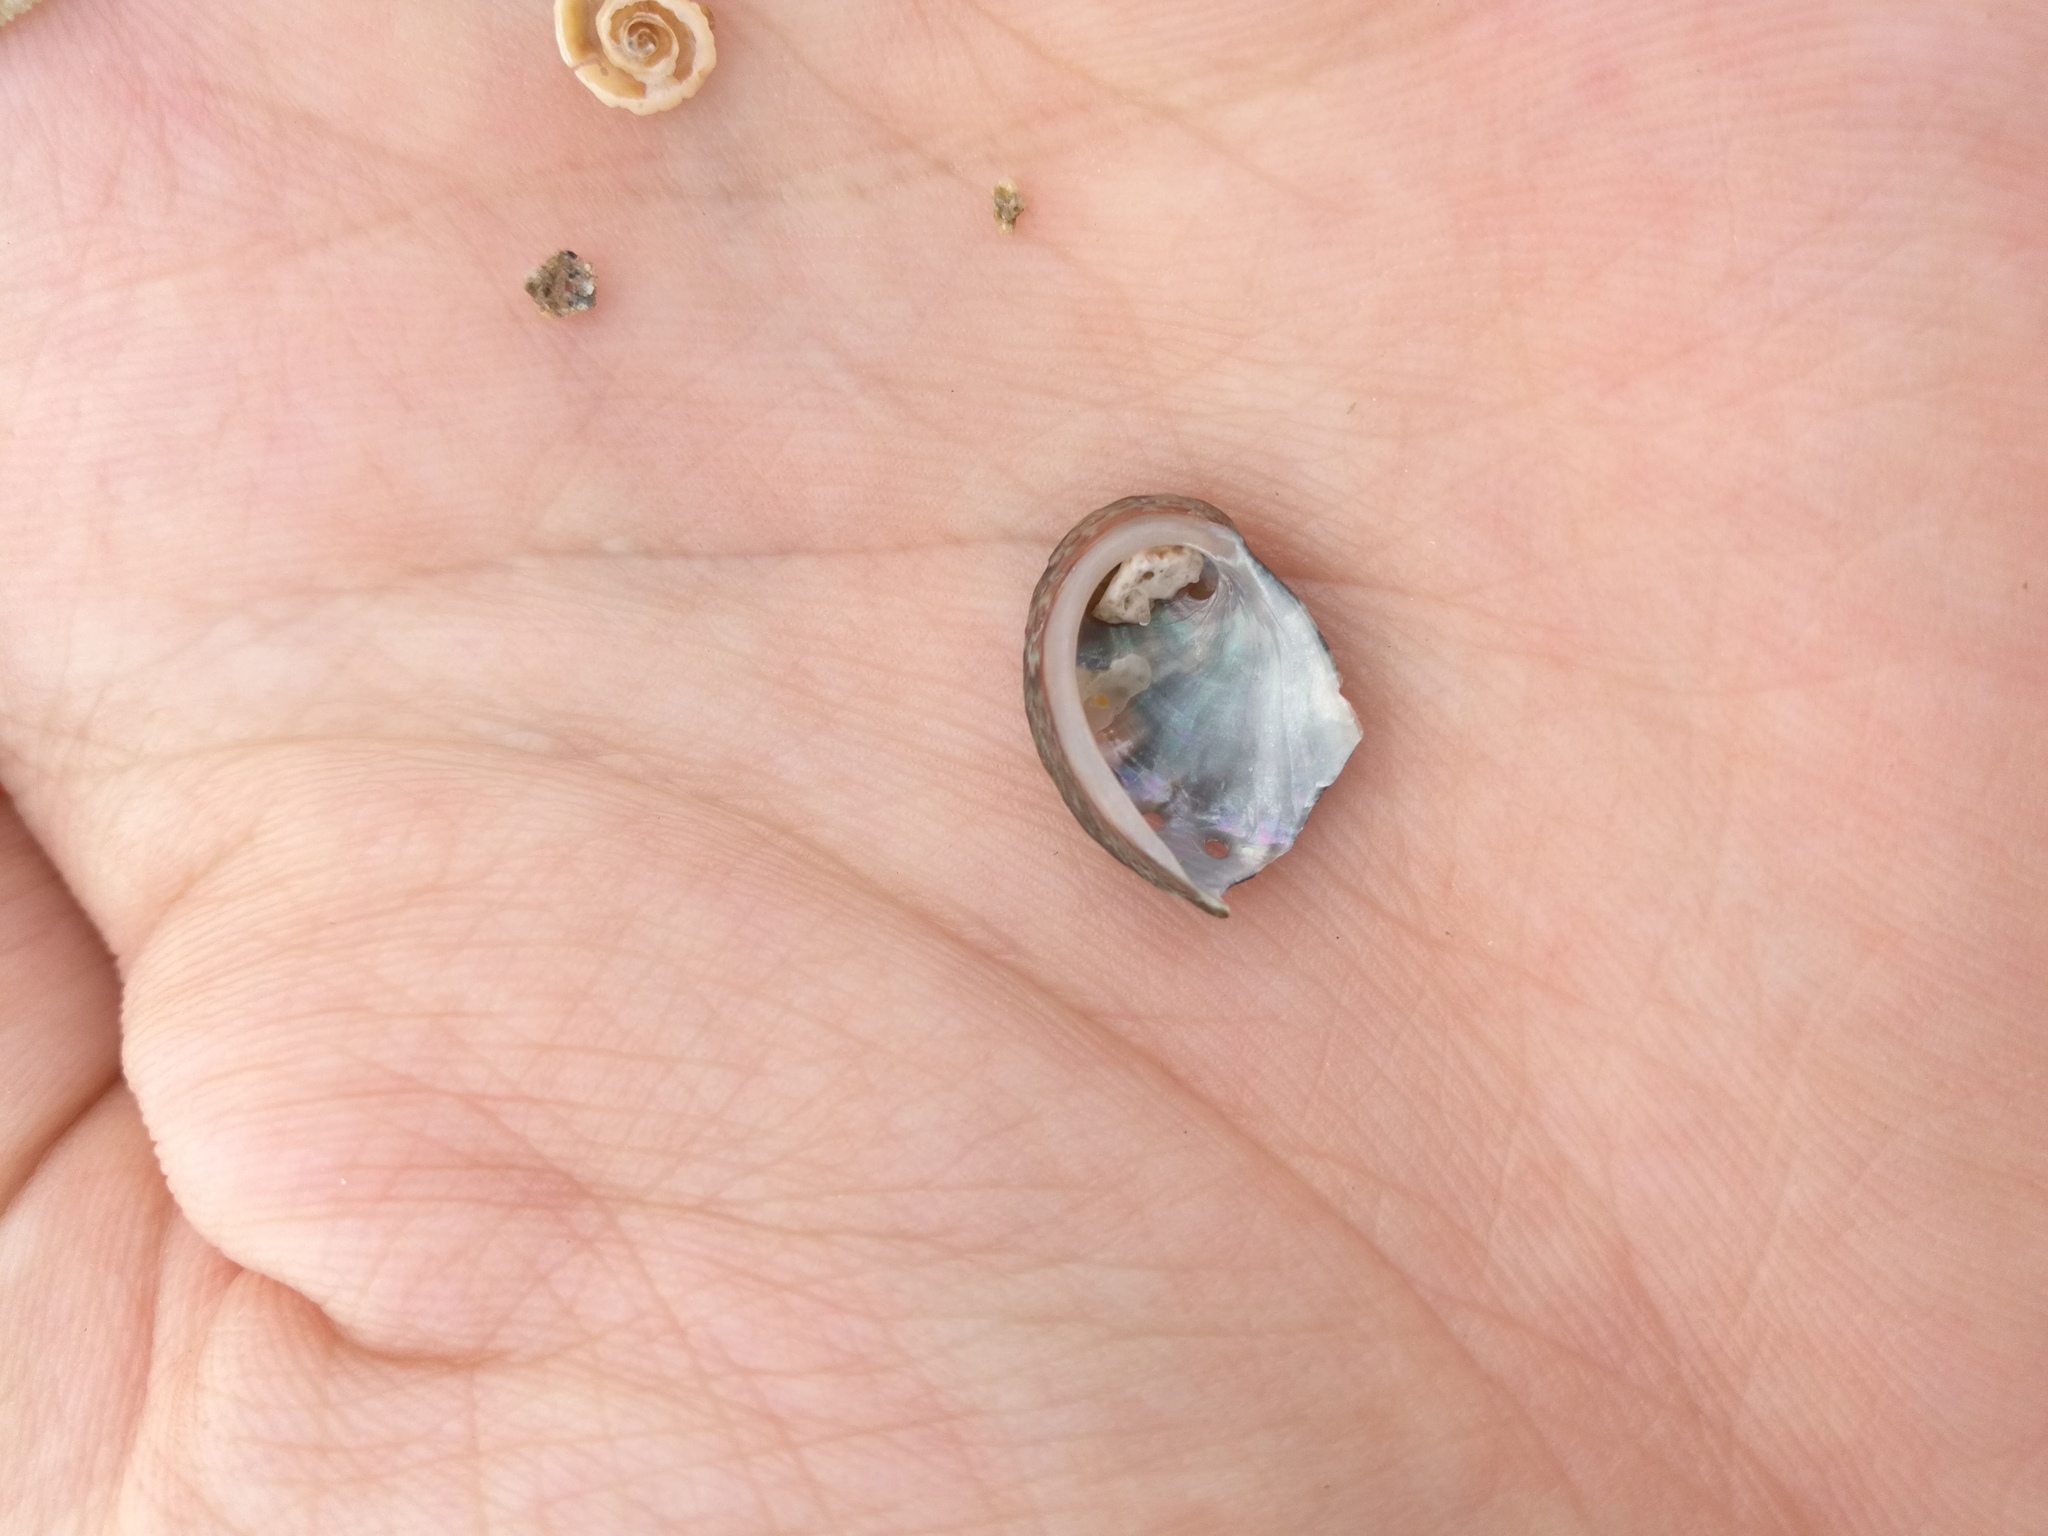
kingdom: Animalia
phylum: Mollusca
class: Gastropoda
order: Lepetellida
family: Haliotidae
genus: Haliotis
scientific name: Haliotis tuberculata
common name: Green ormer
